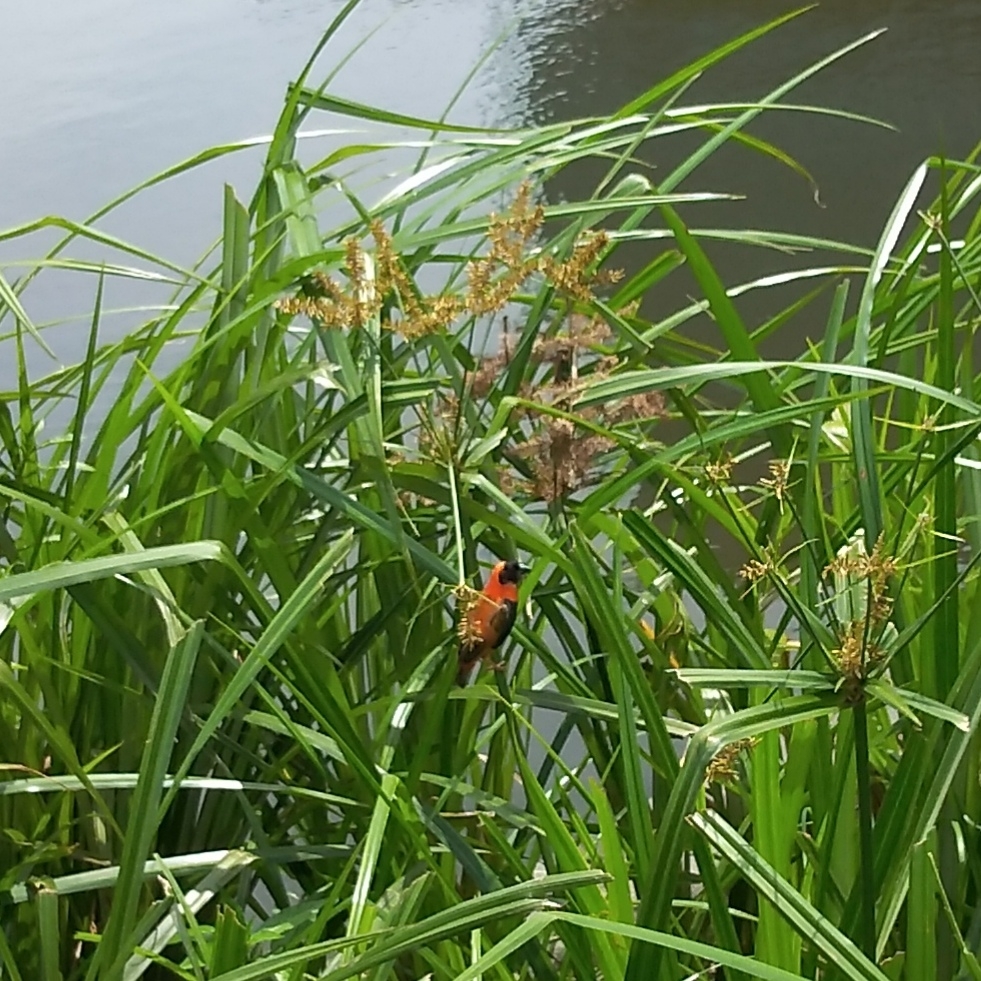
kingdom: Animalia
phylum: Chordata
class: Aves
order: Passeriformes
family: Ploceidae
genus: Euplectes
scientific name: Euplectes orix
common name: Southern red bishop
